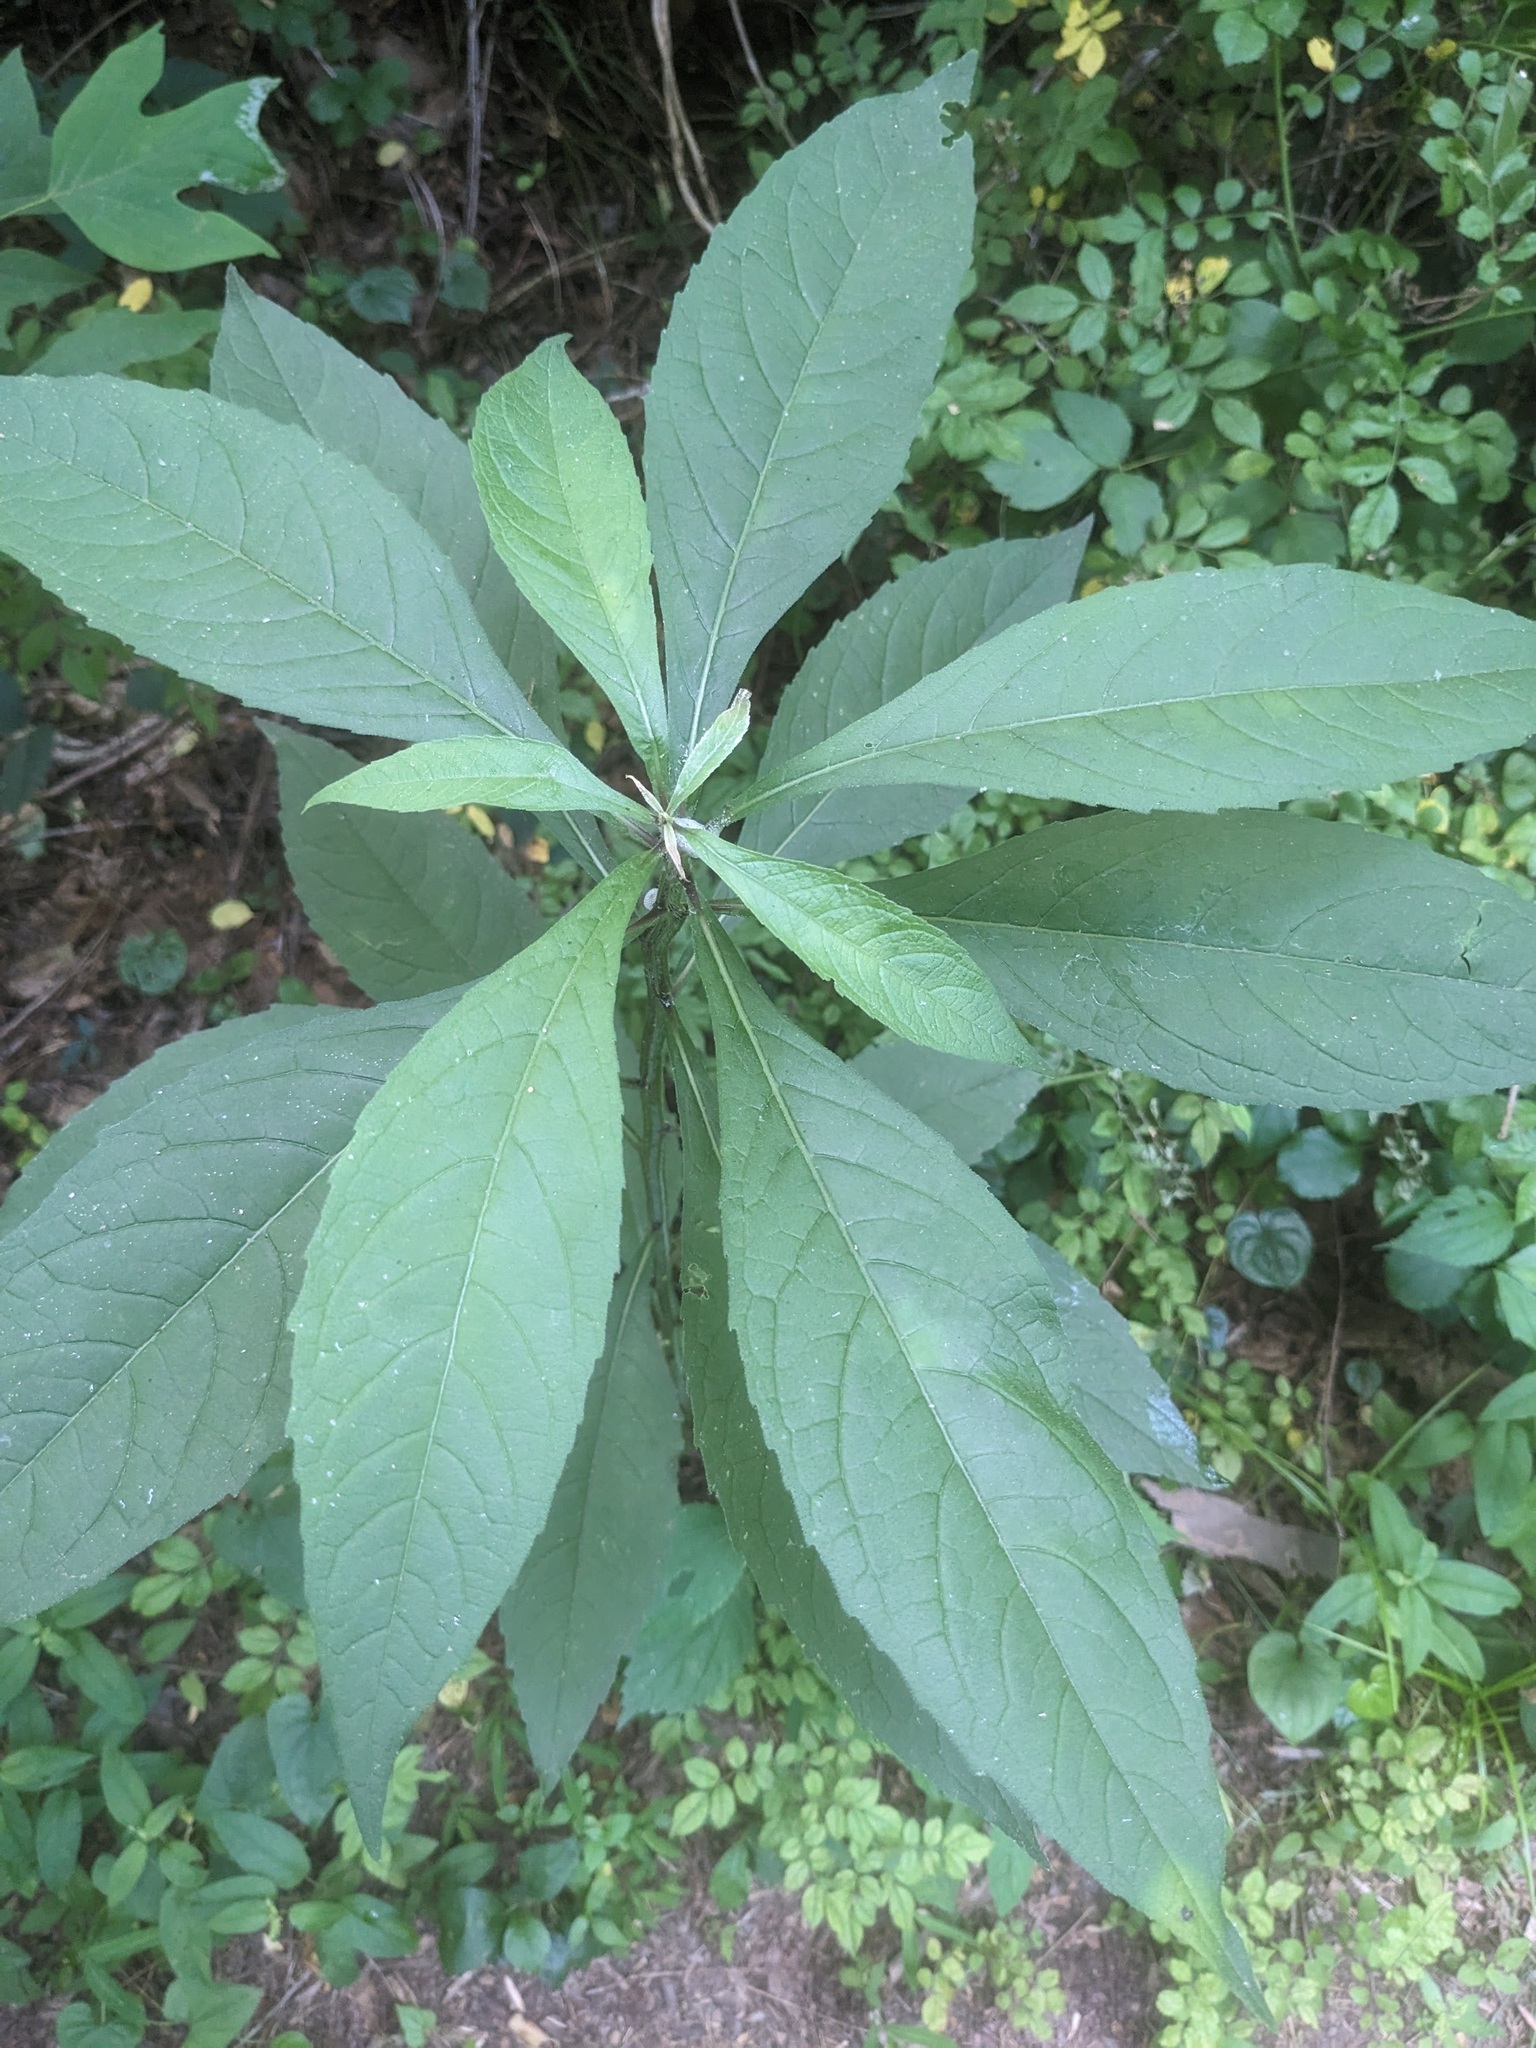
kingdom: Plantae
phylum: Tracheophyta
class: Magnoliopsida
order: Asterales
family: Asteraceae
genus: Verbesina
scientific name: Verbesina alternifolia
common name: Wingstem
